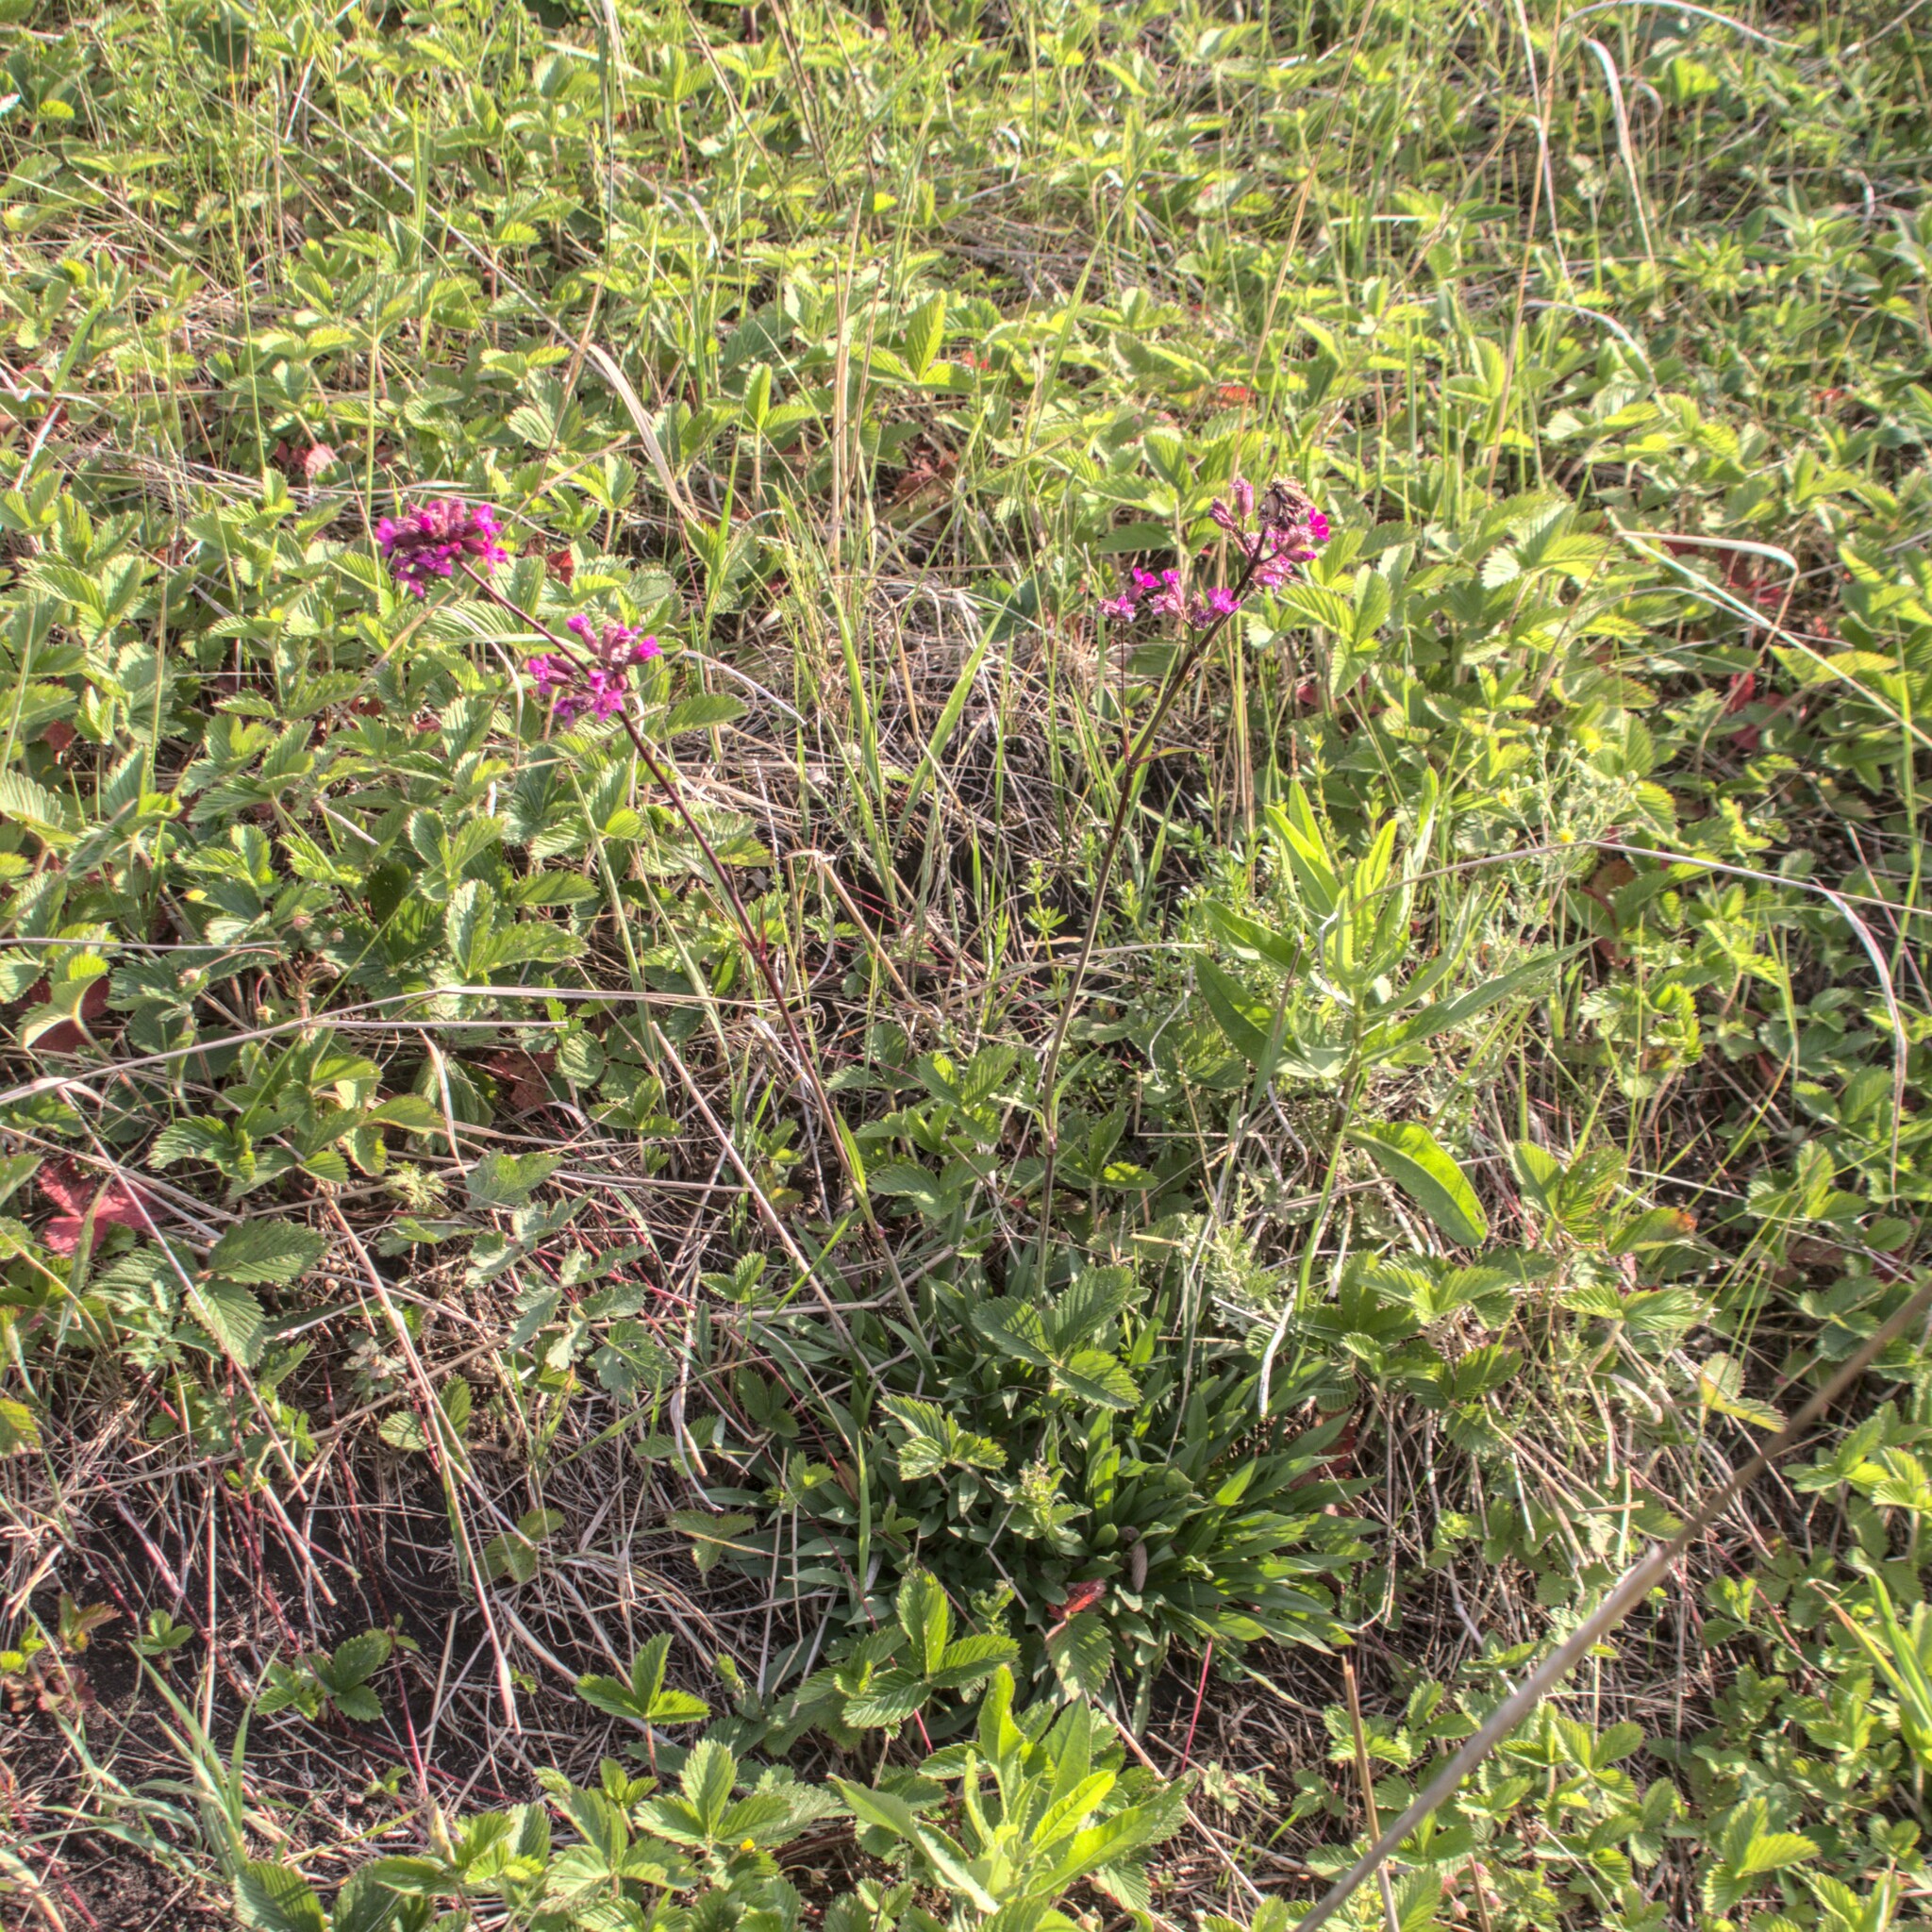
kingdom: Plantae
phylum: Tracheophyta
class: Magnoliopsida
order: Caryophyllales
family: Caryophyllaceae
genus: Viscaria
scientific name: Viscaria vulgaris
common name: Clammy campion
